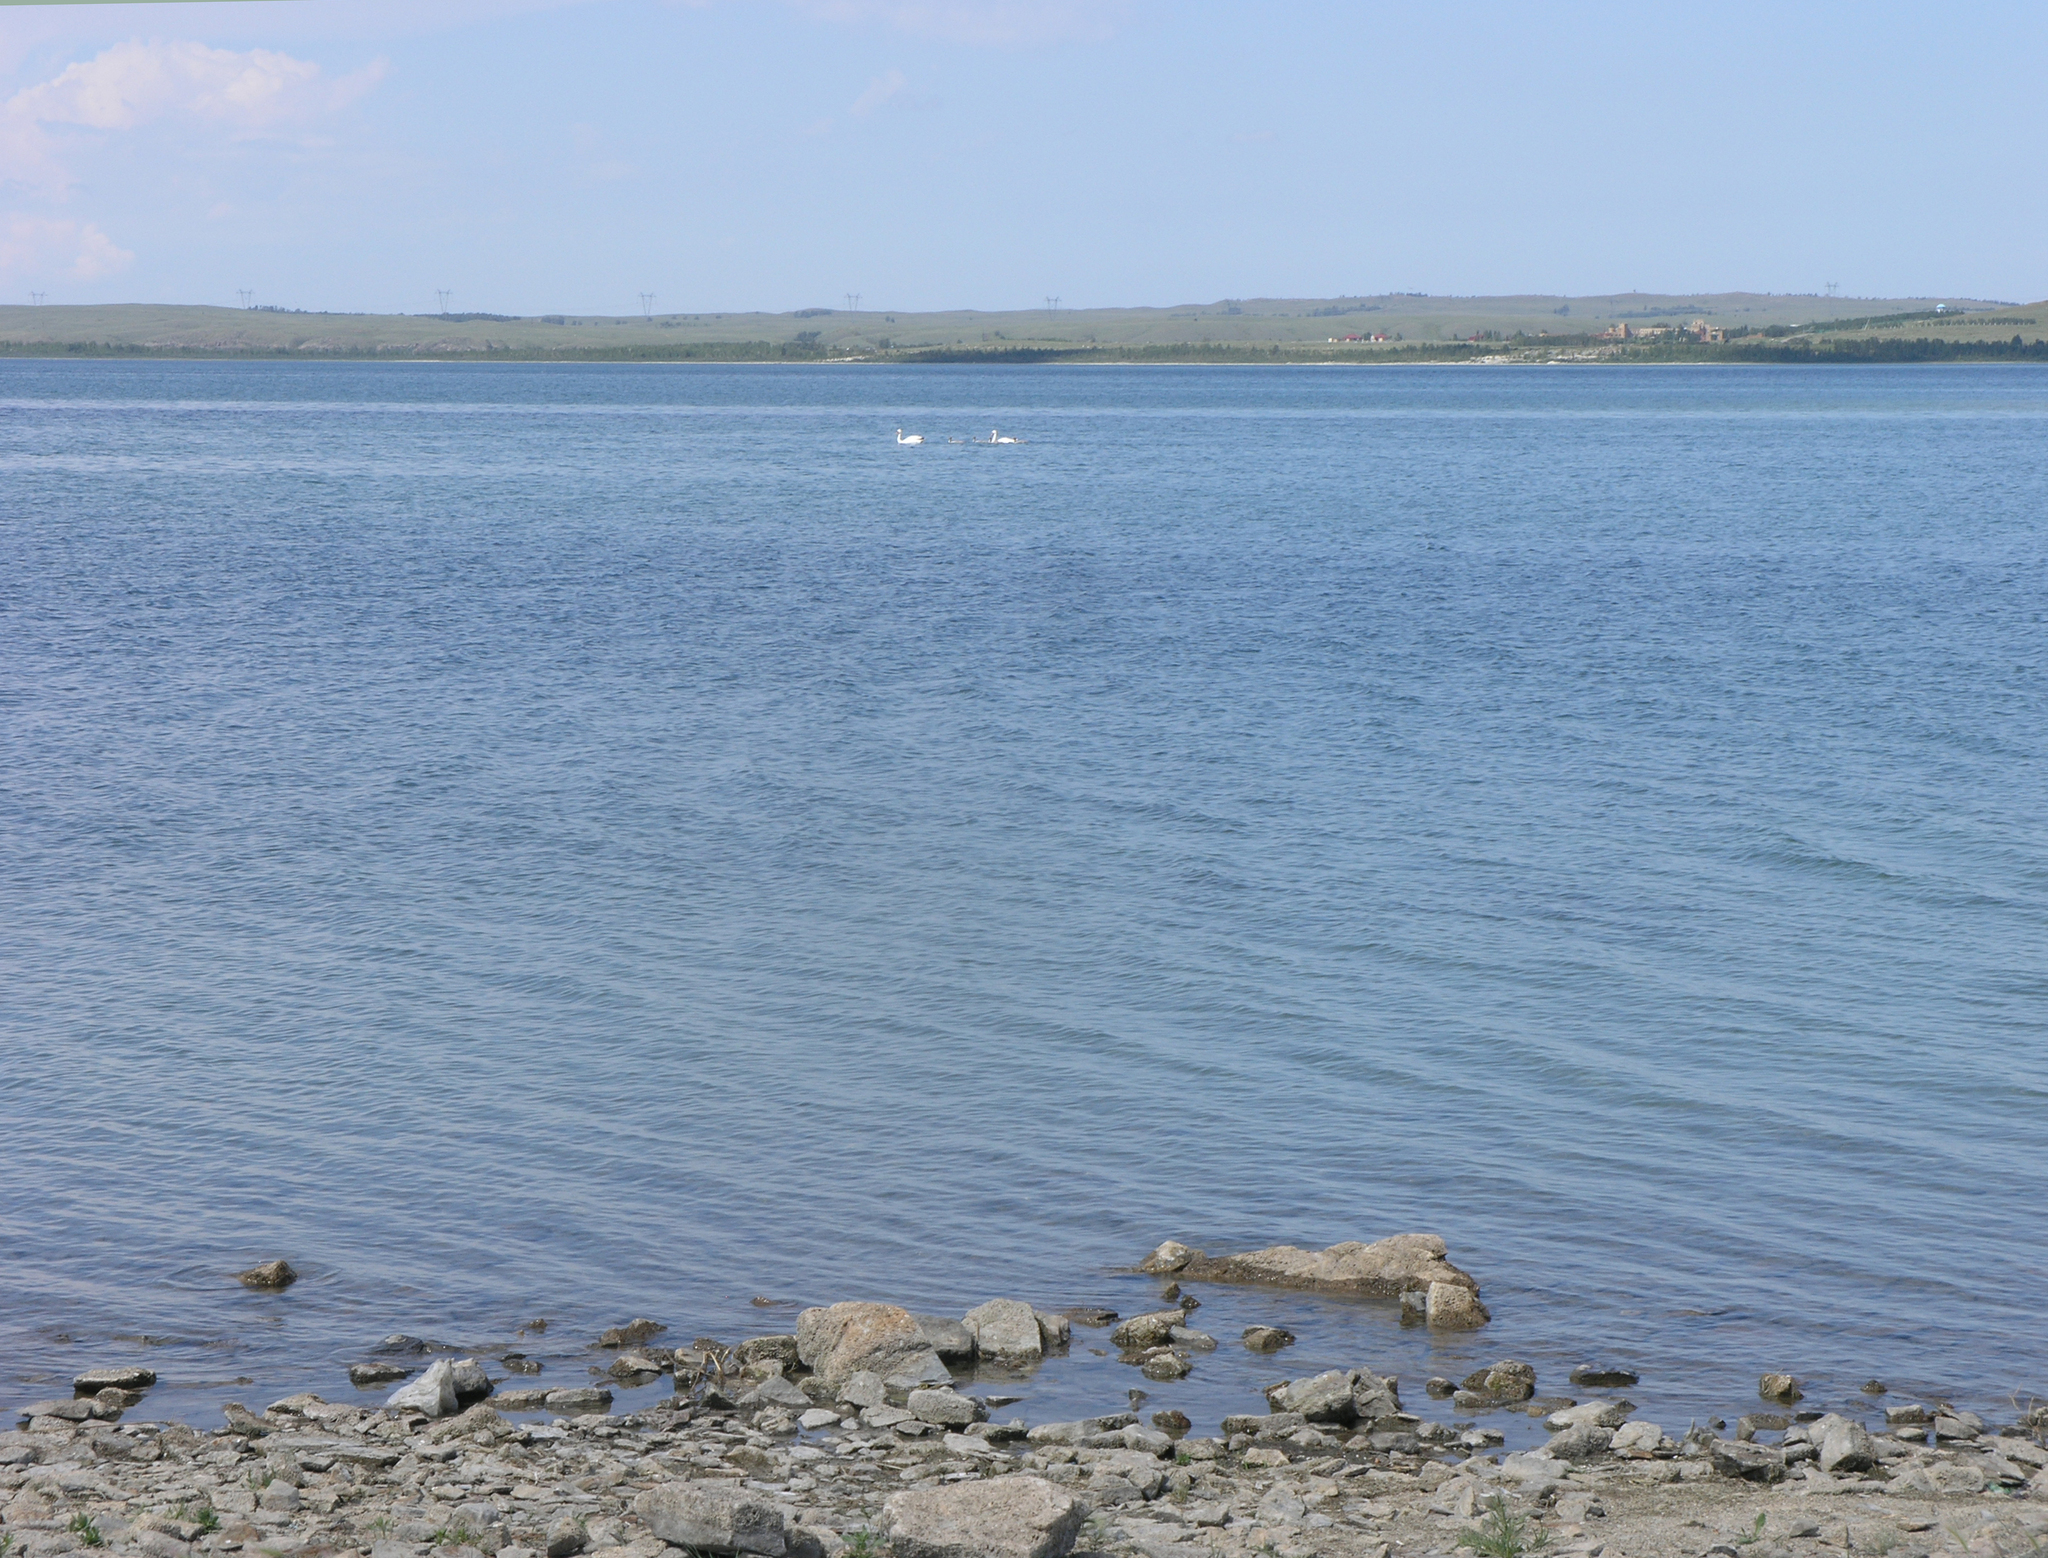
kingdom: Animalia
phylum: Chordata
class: Aves
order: Anseriformes
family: Anatidae
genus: Cygnus
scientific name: Cygnus olor
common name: Mute swan
